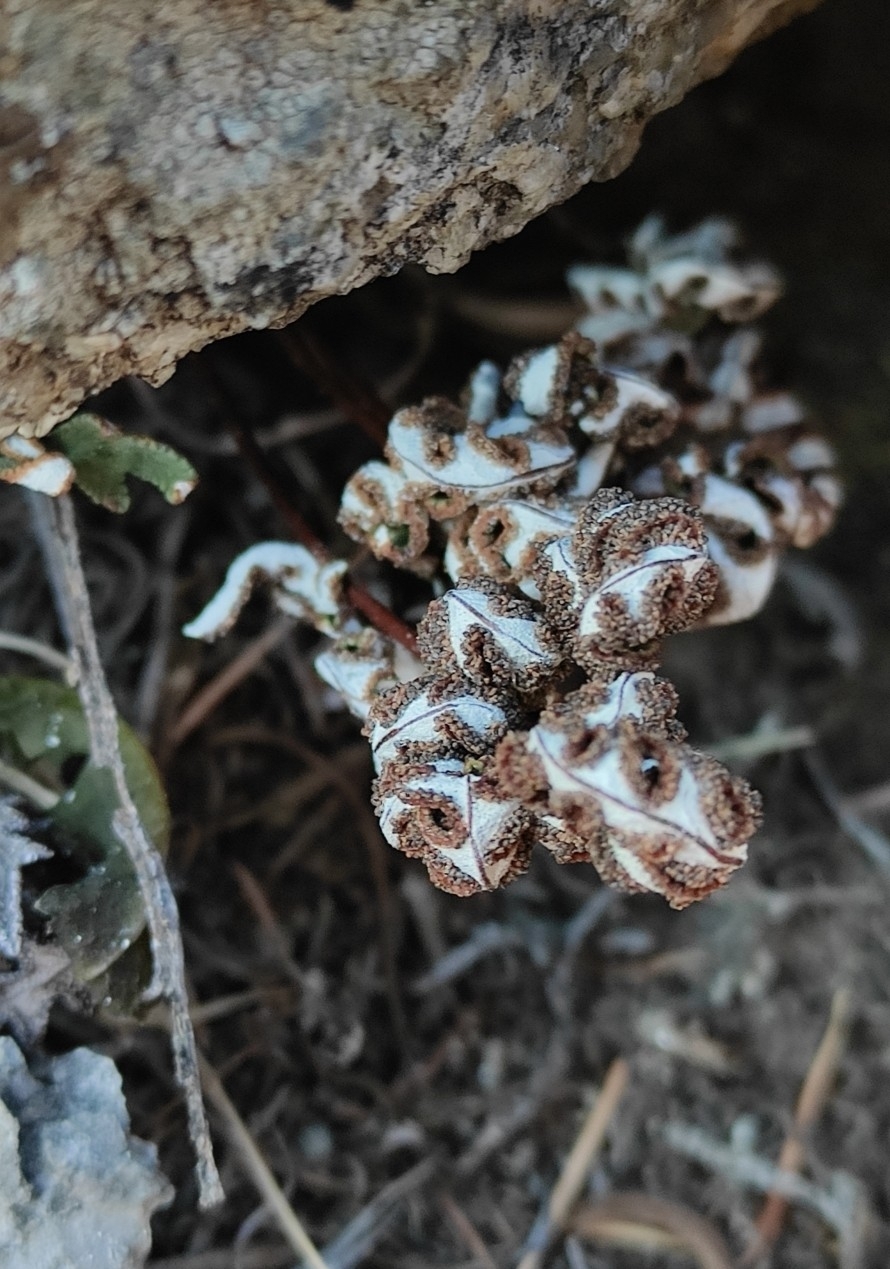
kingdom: Plantae
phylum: Tracheophyta
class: Polypodiopsida
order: Polypodiales
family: Pteridaceae
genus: Aleuritopteris
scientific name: Aleuritopteris argentea
